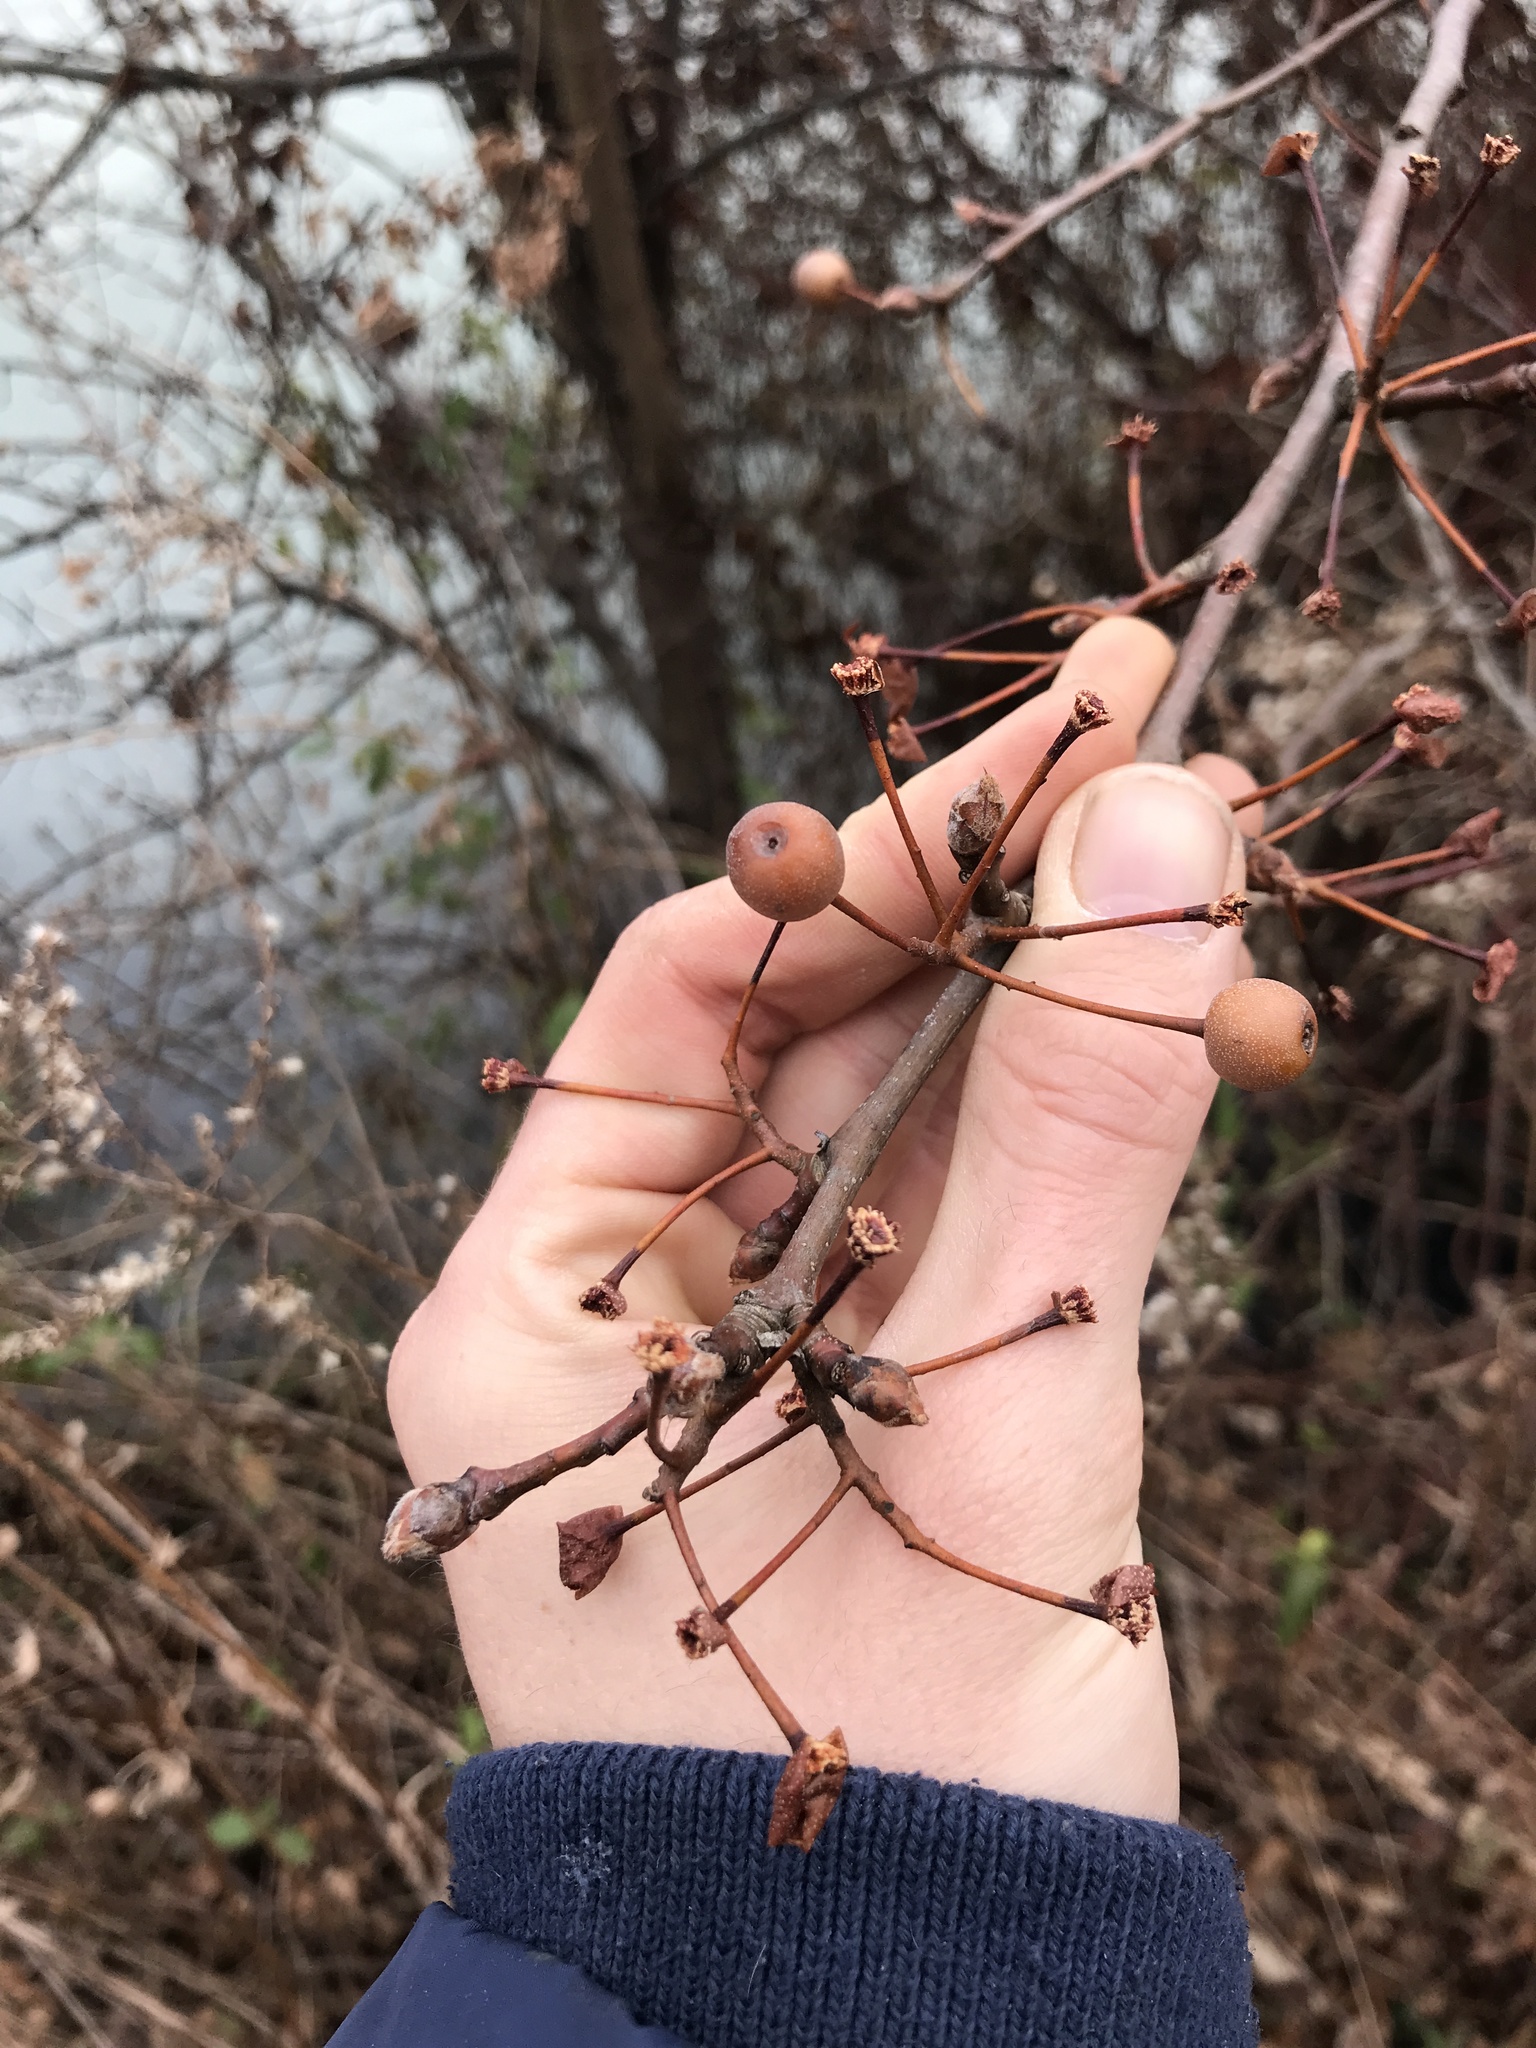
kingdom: Plantae
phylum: Tracheophyta
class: Magnoliopsida
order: Rosales
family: Rosaceae
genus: Pyrus
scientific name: Pyrus calleryana
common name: Callery pear
